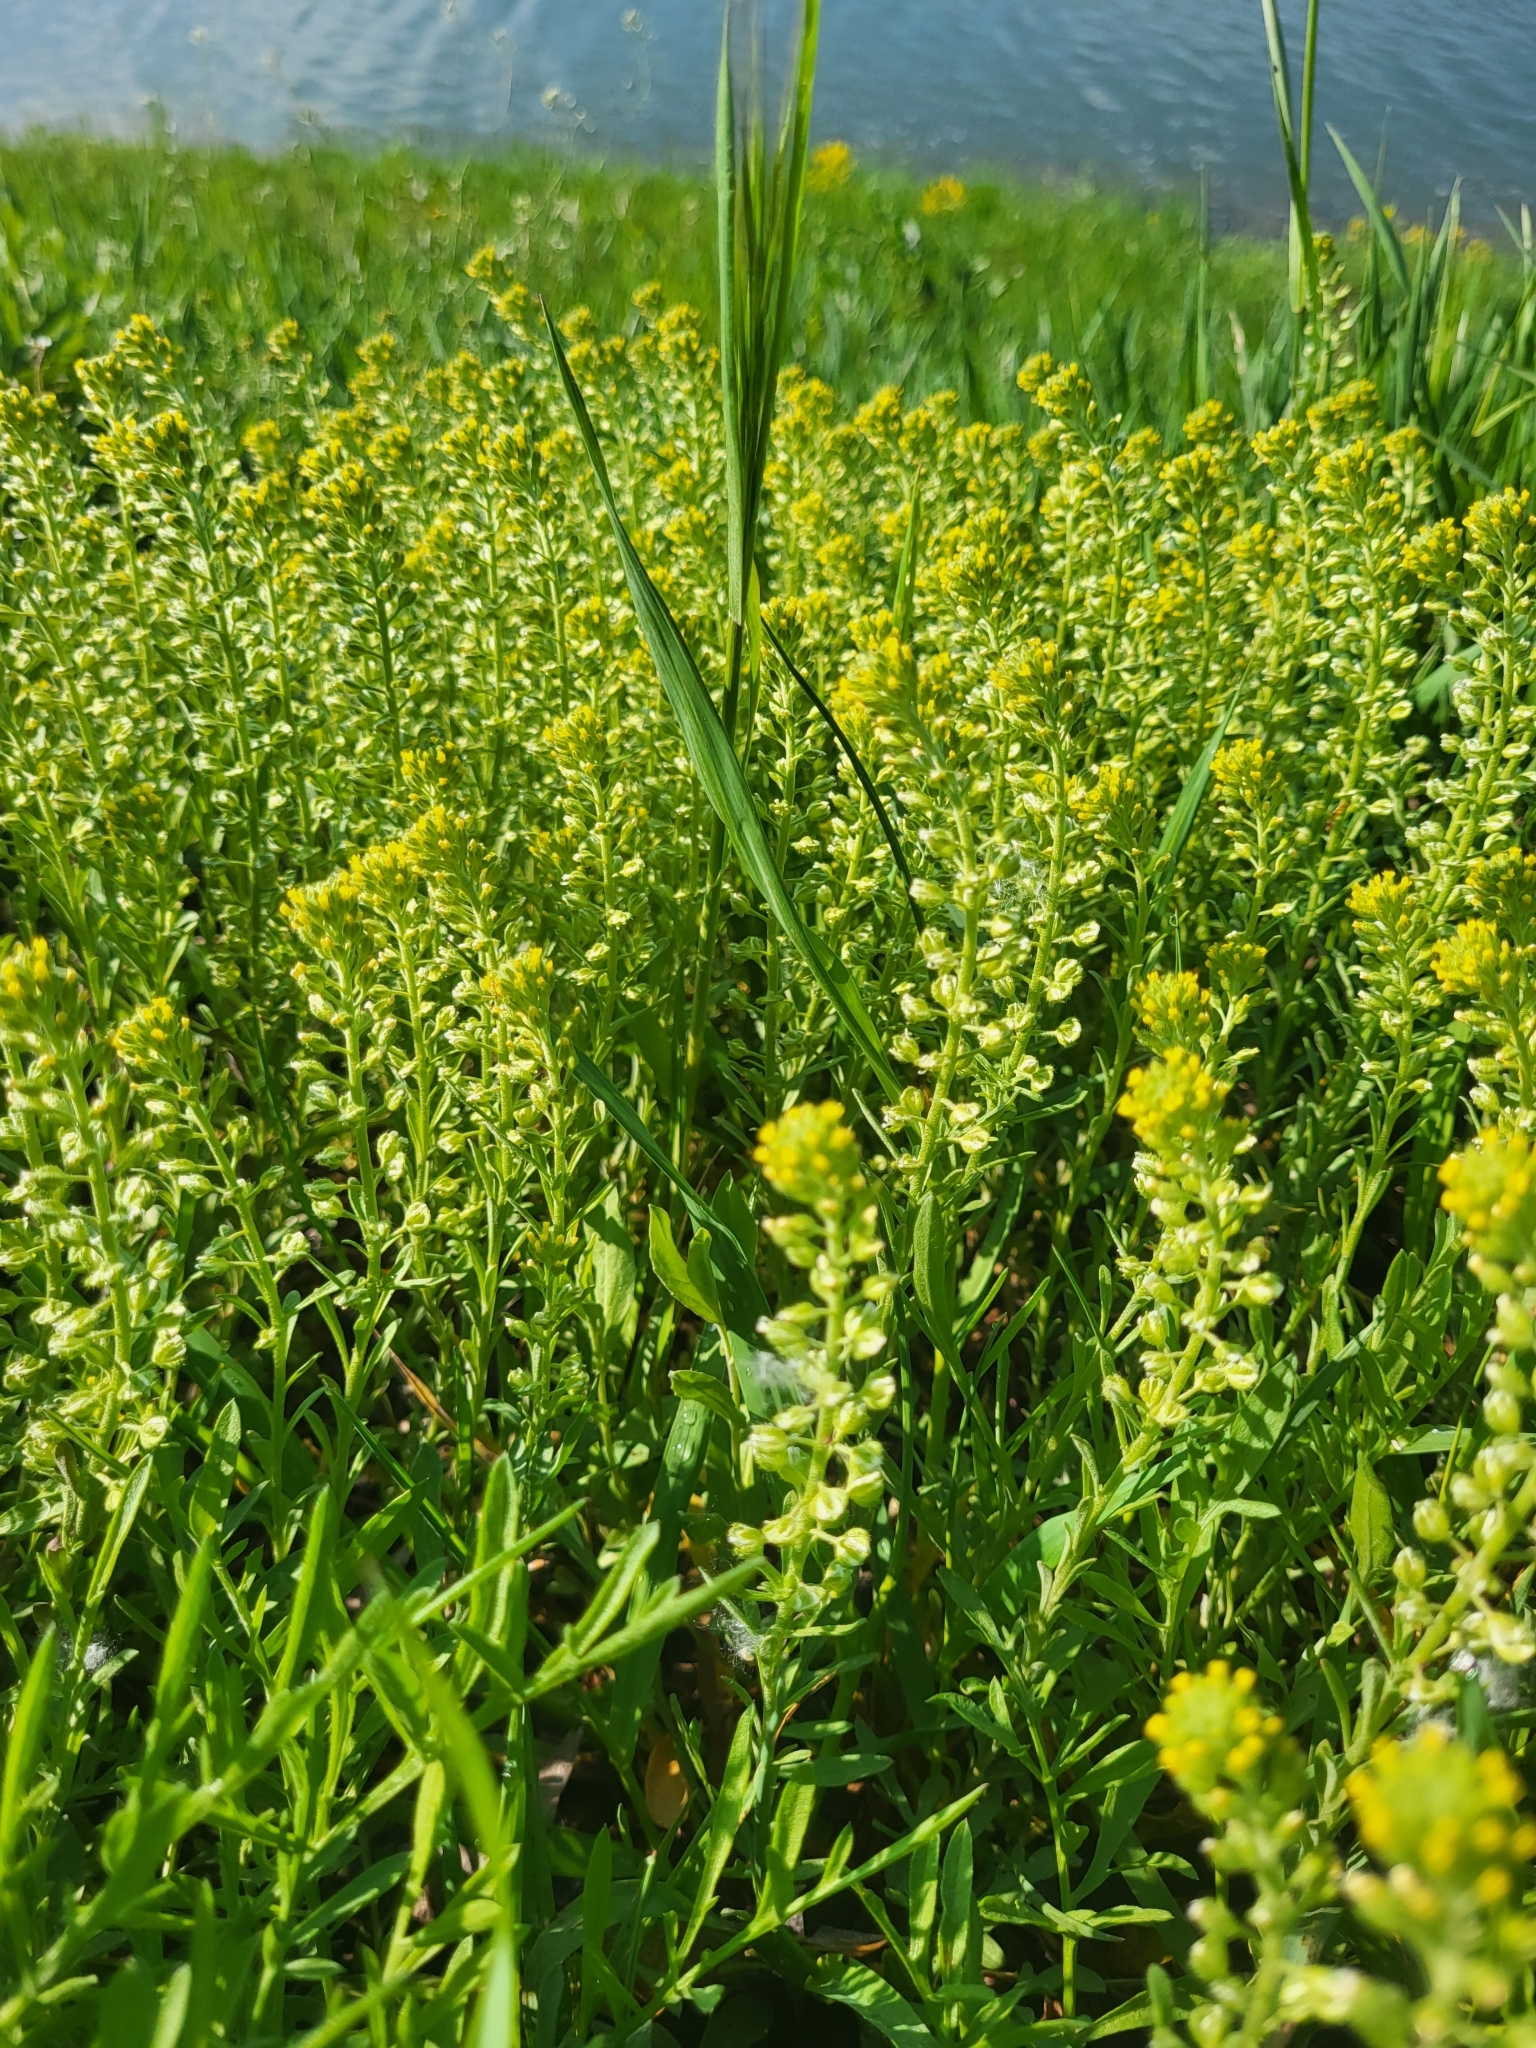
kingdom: Plantae
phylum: Tracheophyta
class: Magnoliopsida
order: Brassicales
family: Brassicaceae
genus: Alyssum
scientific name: Alyssum alyssoides
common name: Small alison
